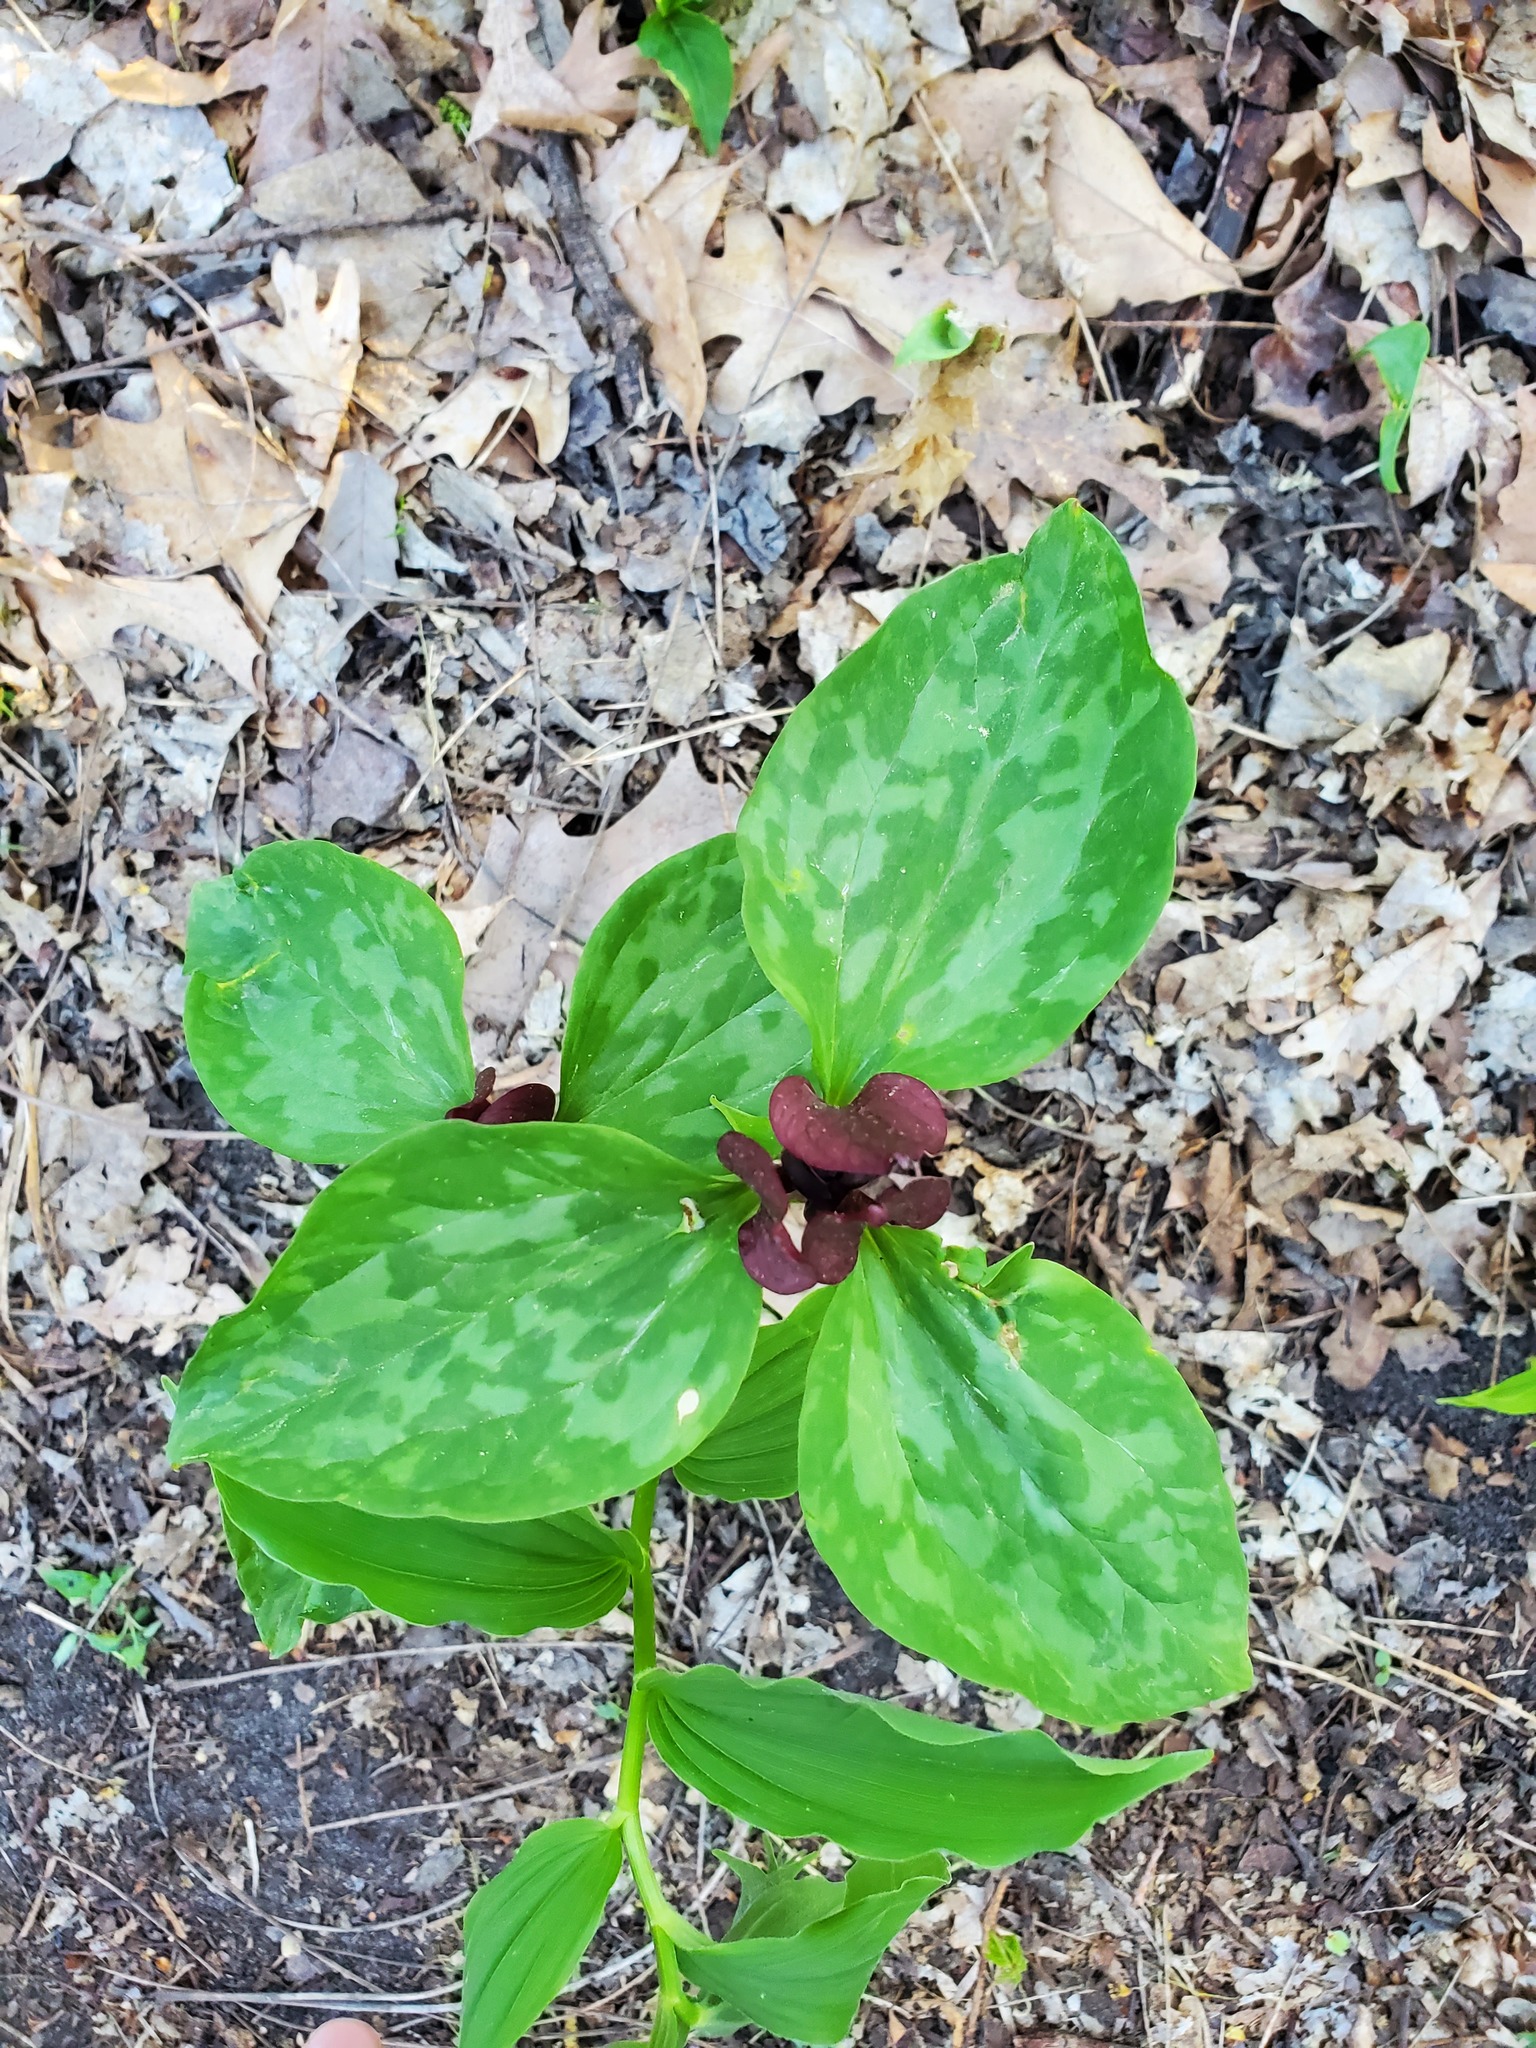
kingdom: Plantae
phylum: Tracheophyta
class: Liliopsida
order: Liliales
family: Melanthiaceae
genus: Trillium
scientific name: Trillium recurvatum
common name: Bloody butcher
